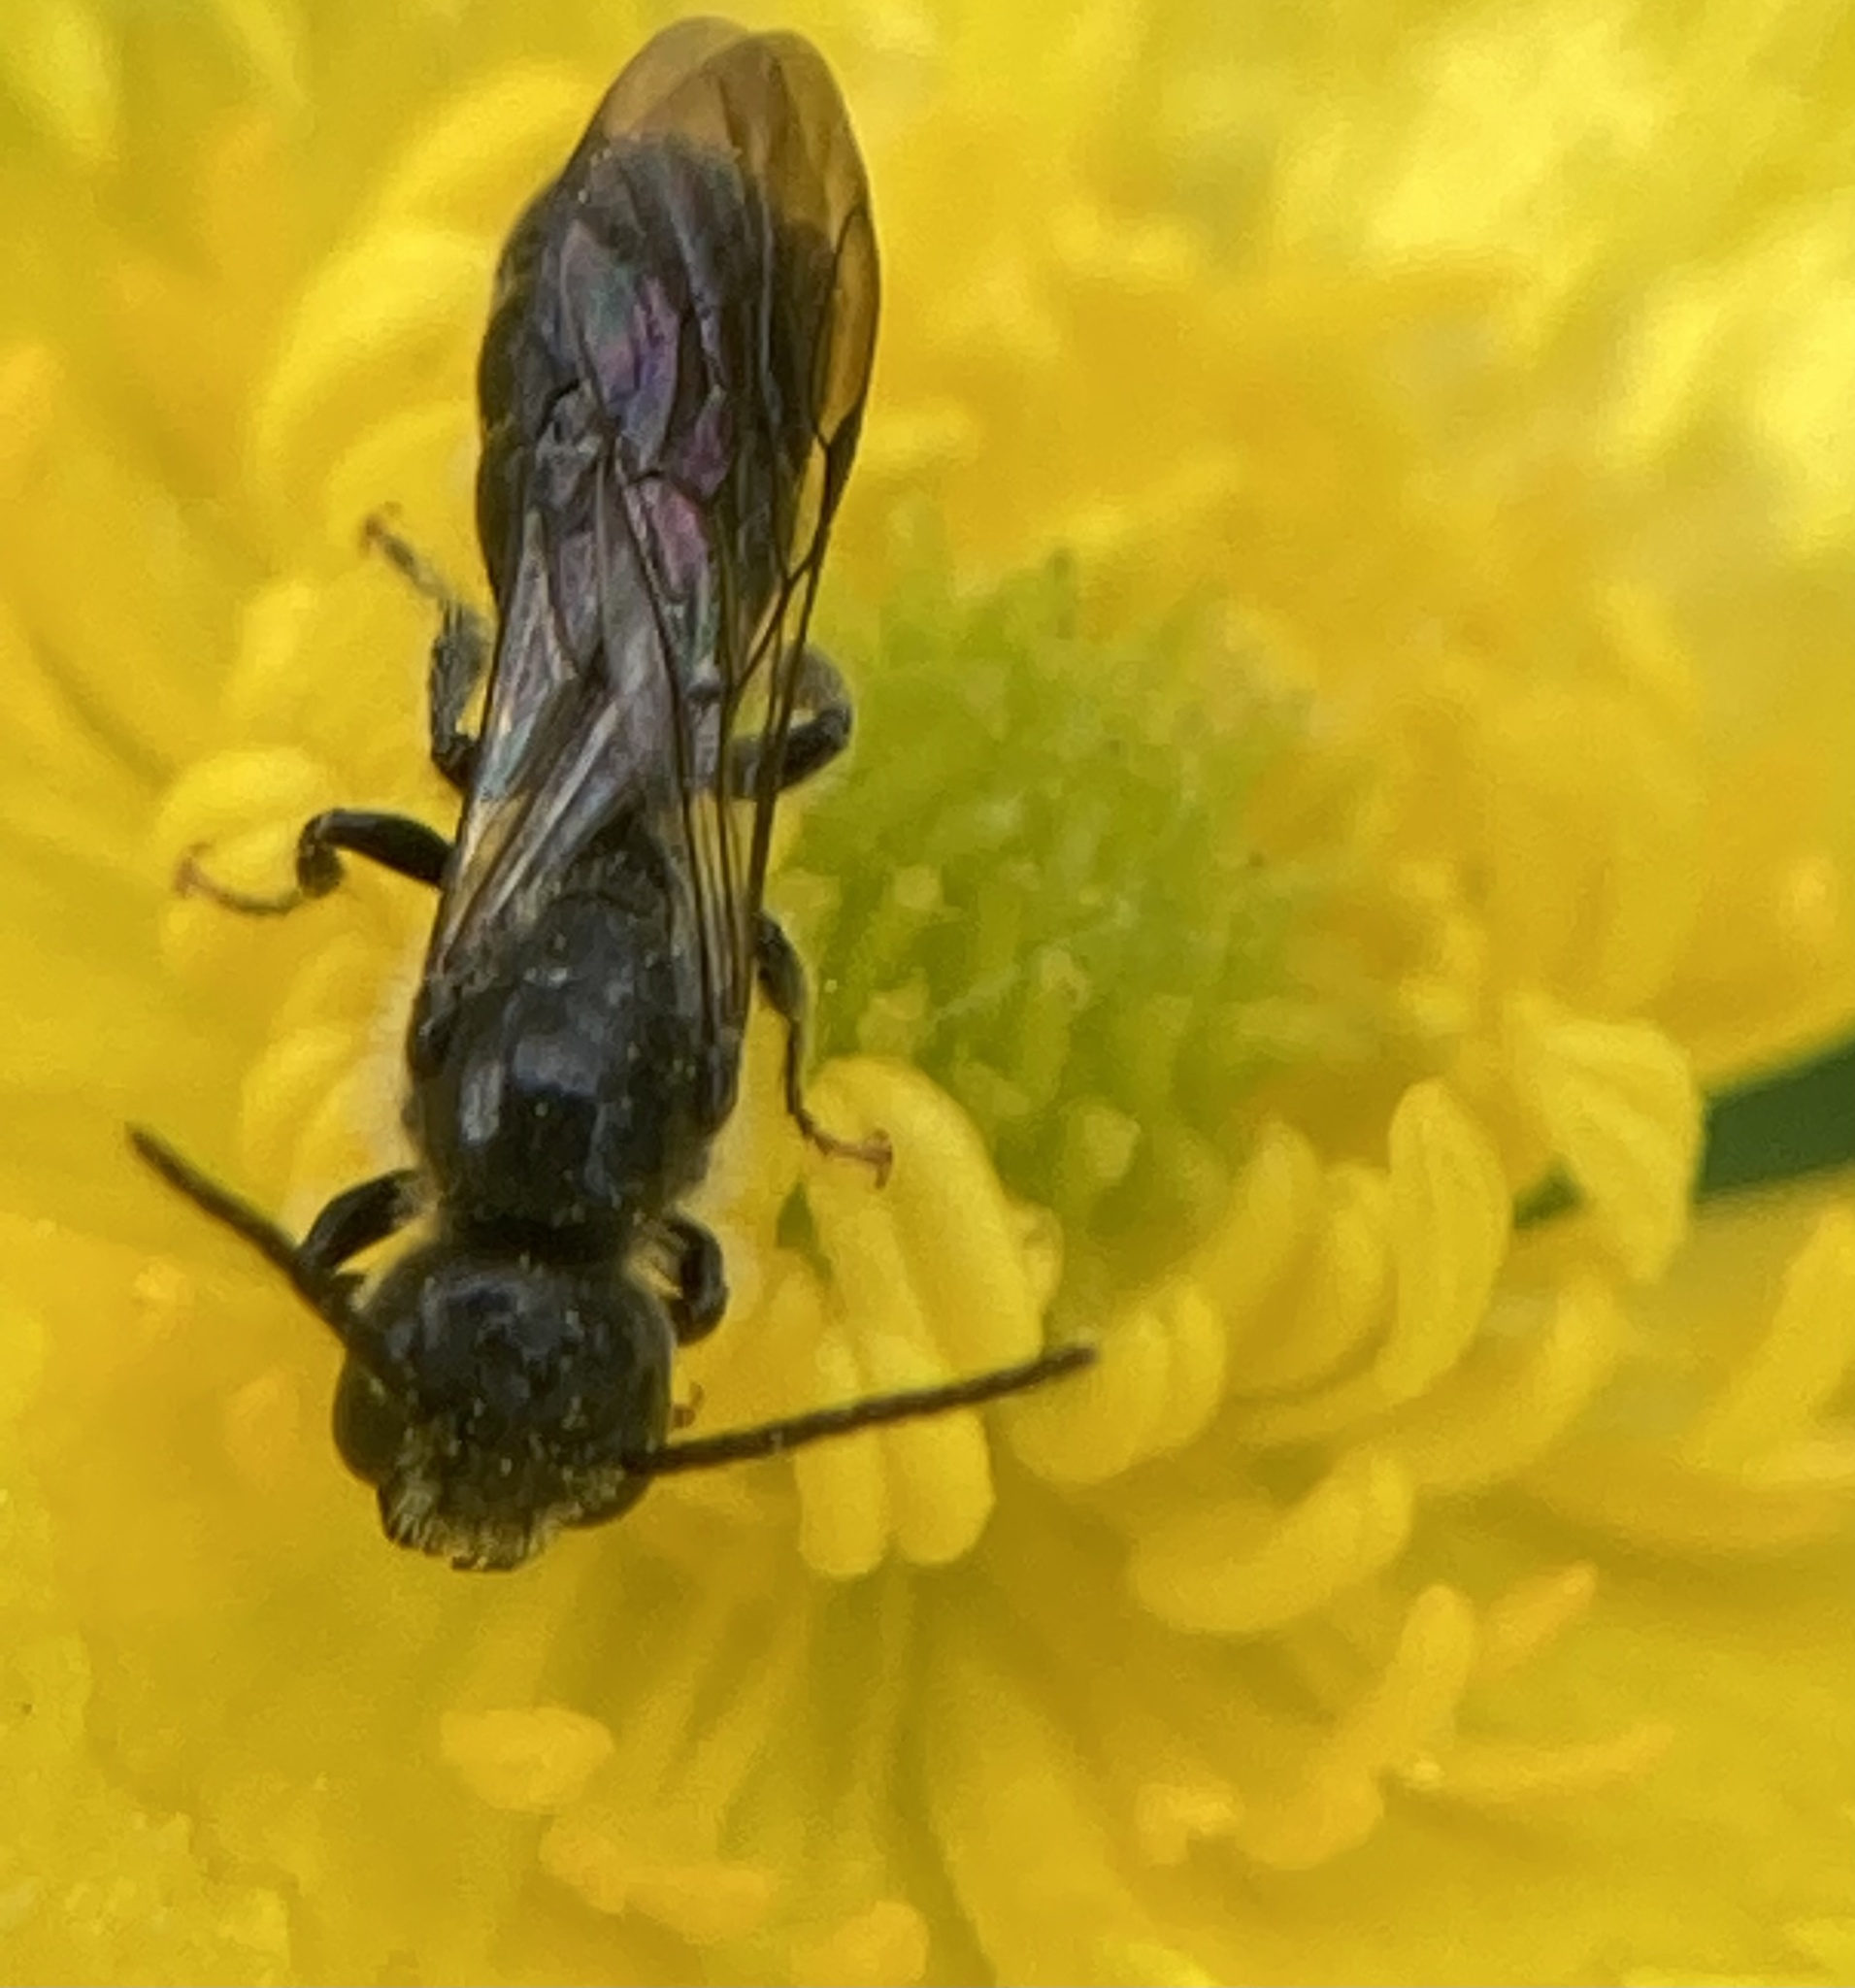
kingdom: Animalia
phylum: Arthropoda
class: Insecta
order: Hymenoptera
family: Megachilidae
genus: Chelostoma
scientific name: Chelostoma
